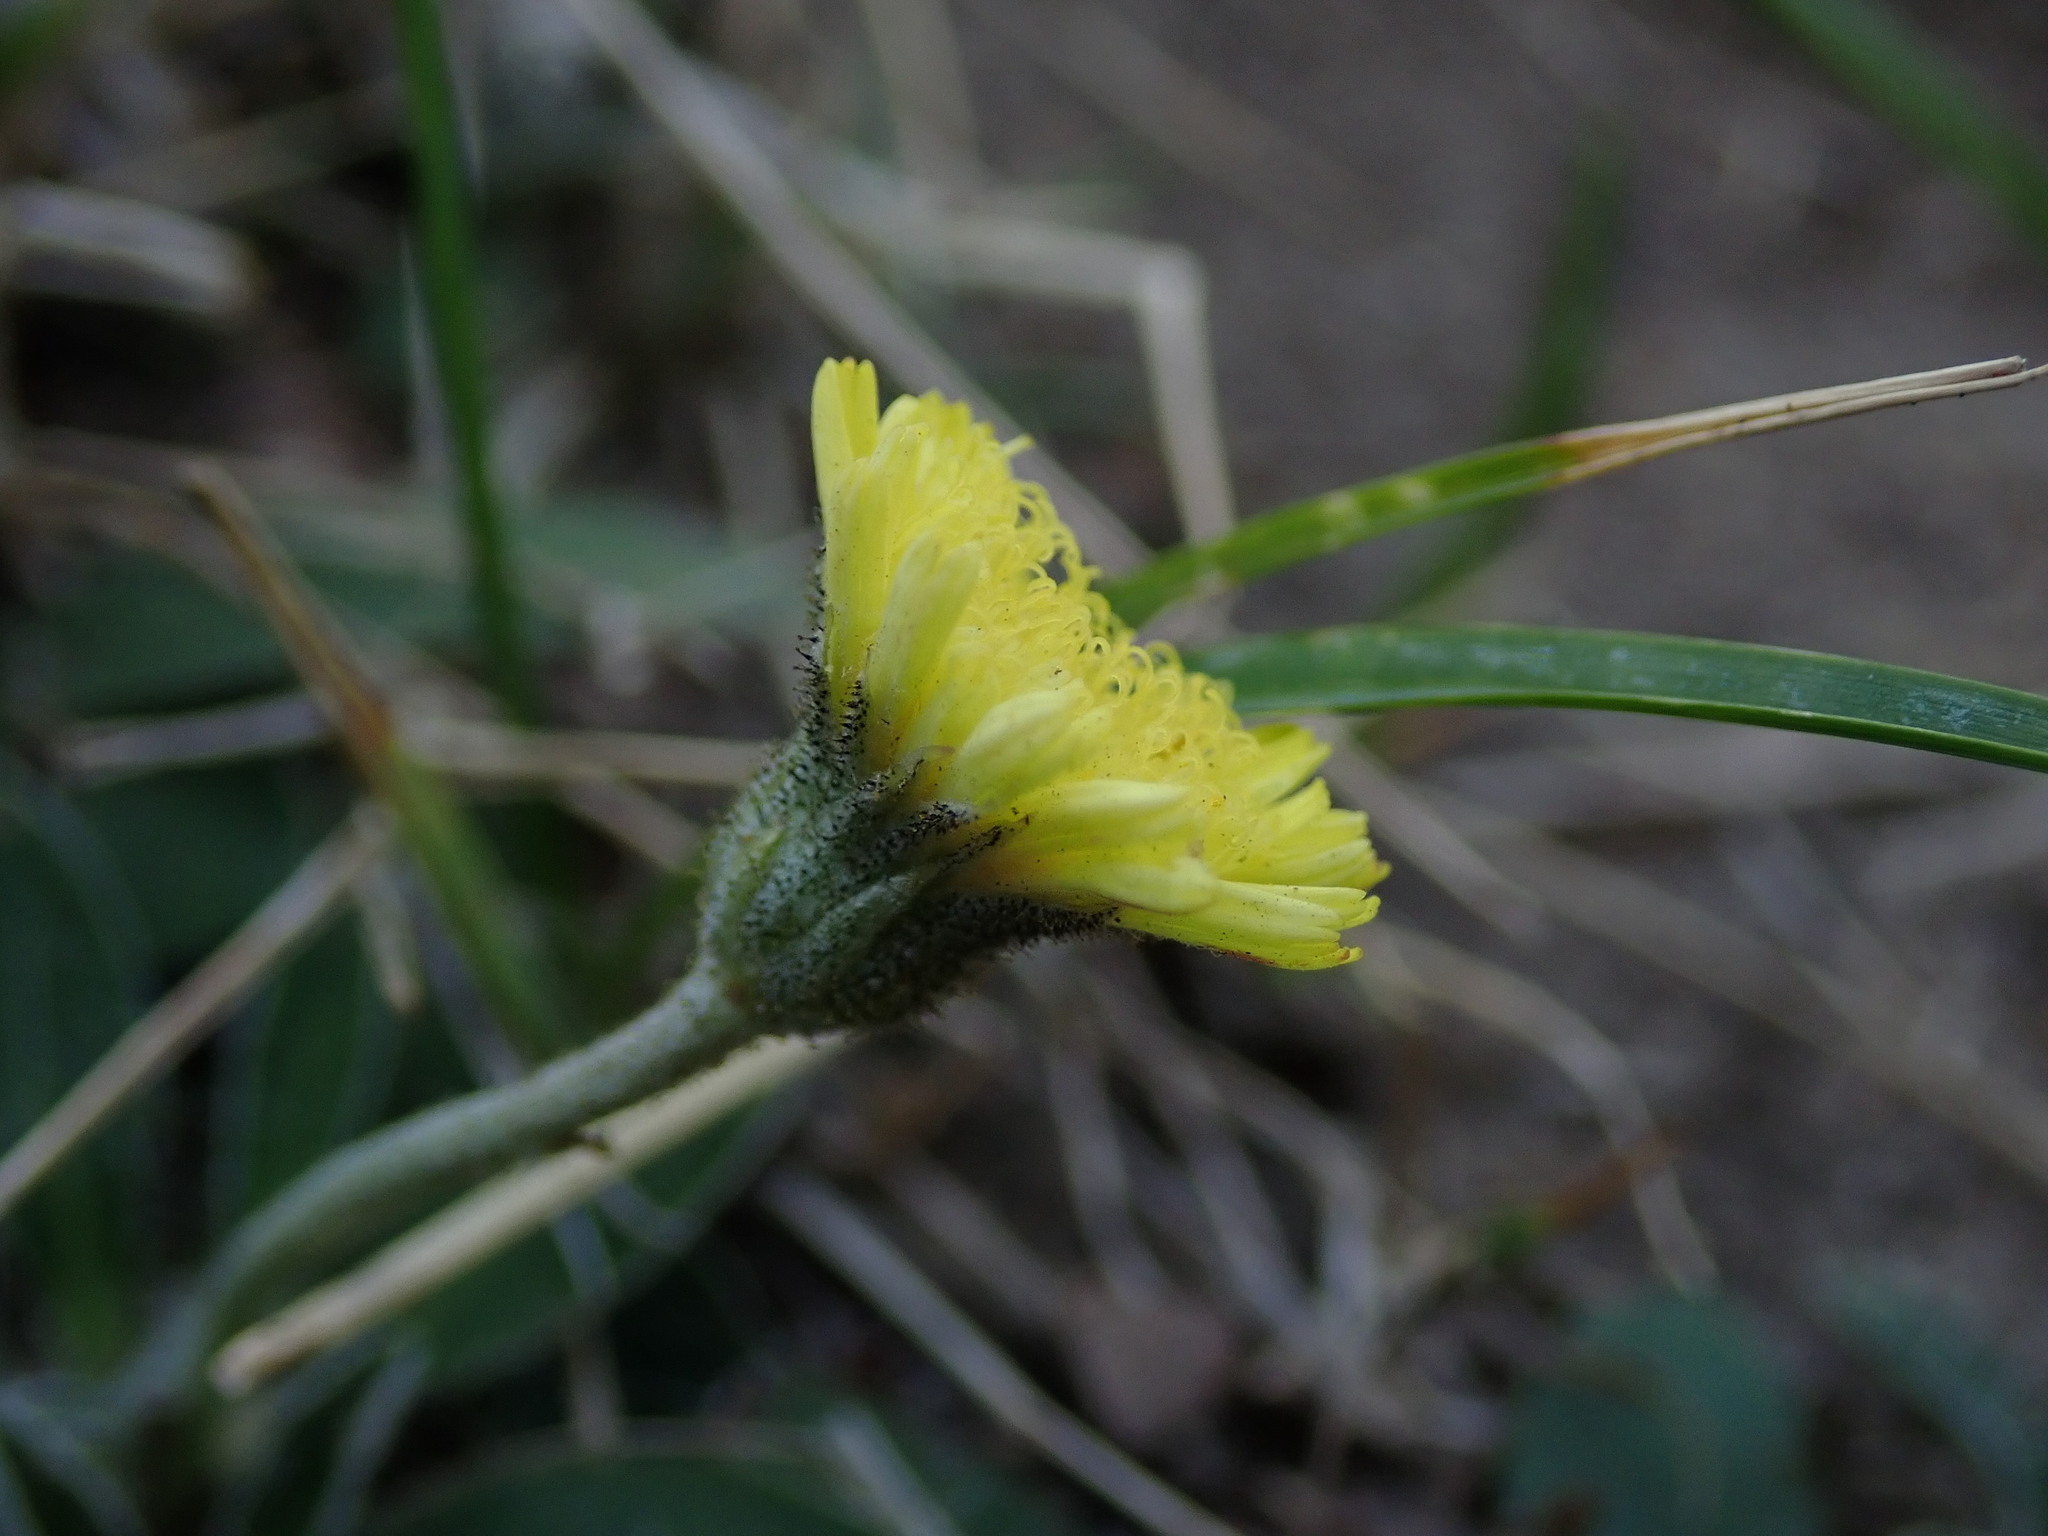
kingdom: Plantae
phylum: Tracheophyta
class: Magnoliopsida
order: Asterales
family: Asteraceae
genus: Pilosella
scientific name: Pilosella officinarum
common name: Mouse-ear hawkweed
